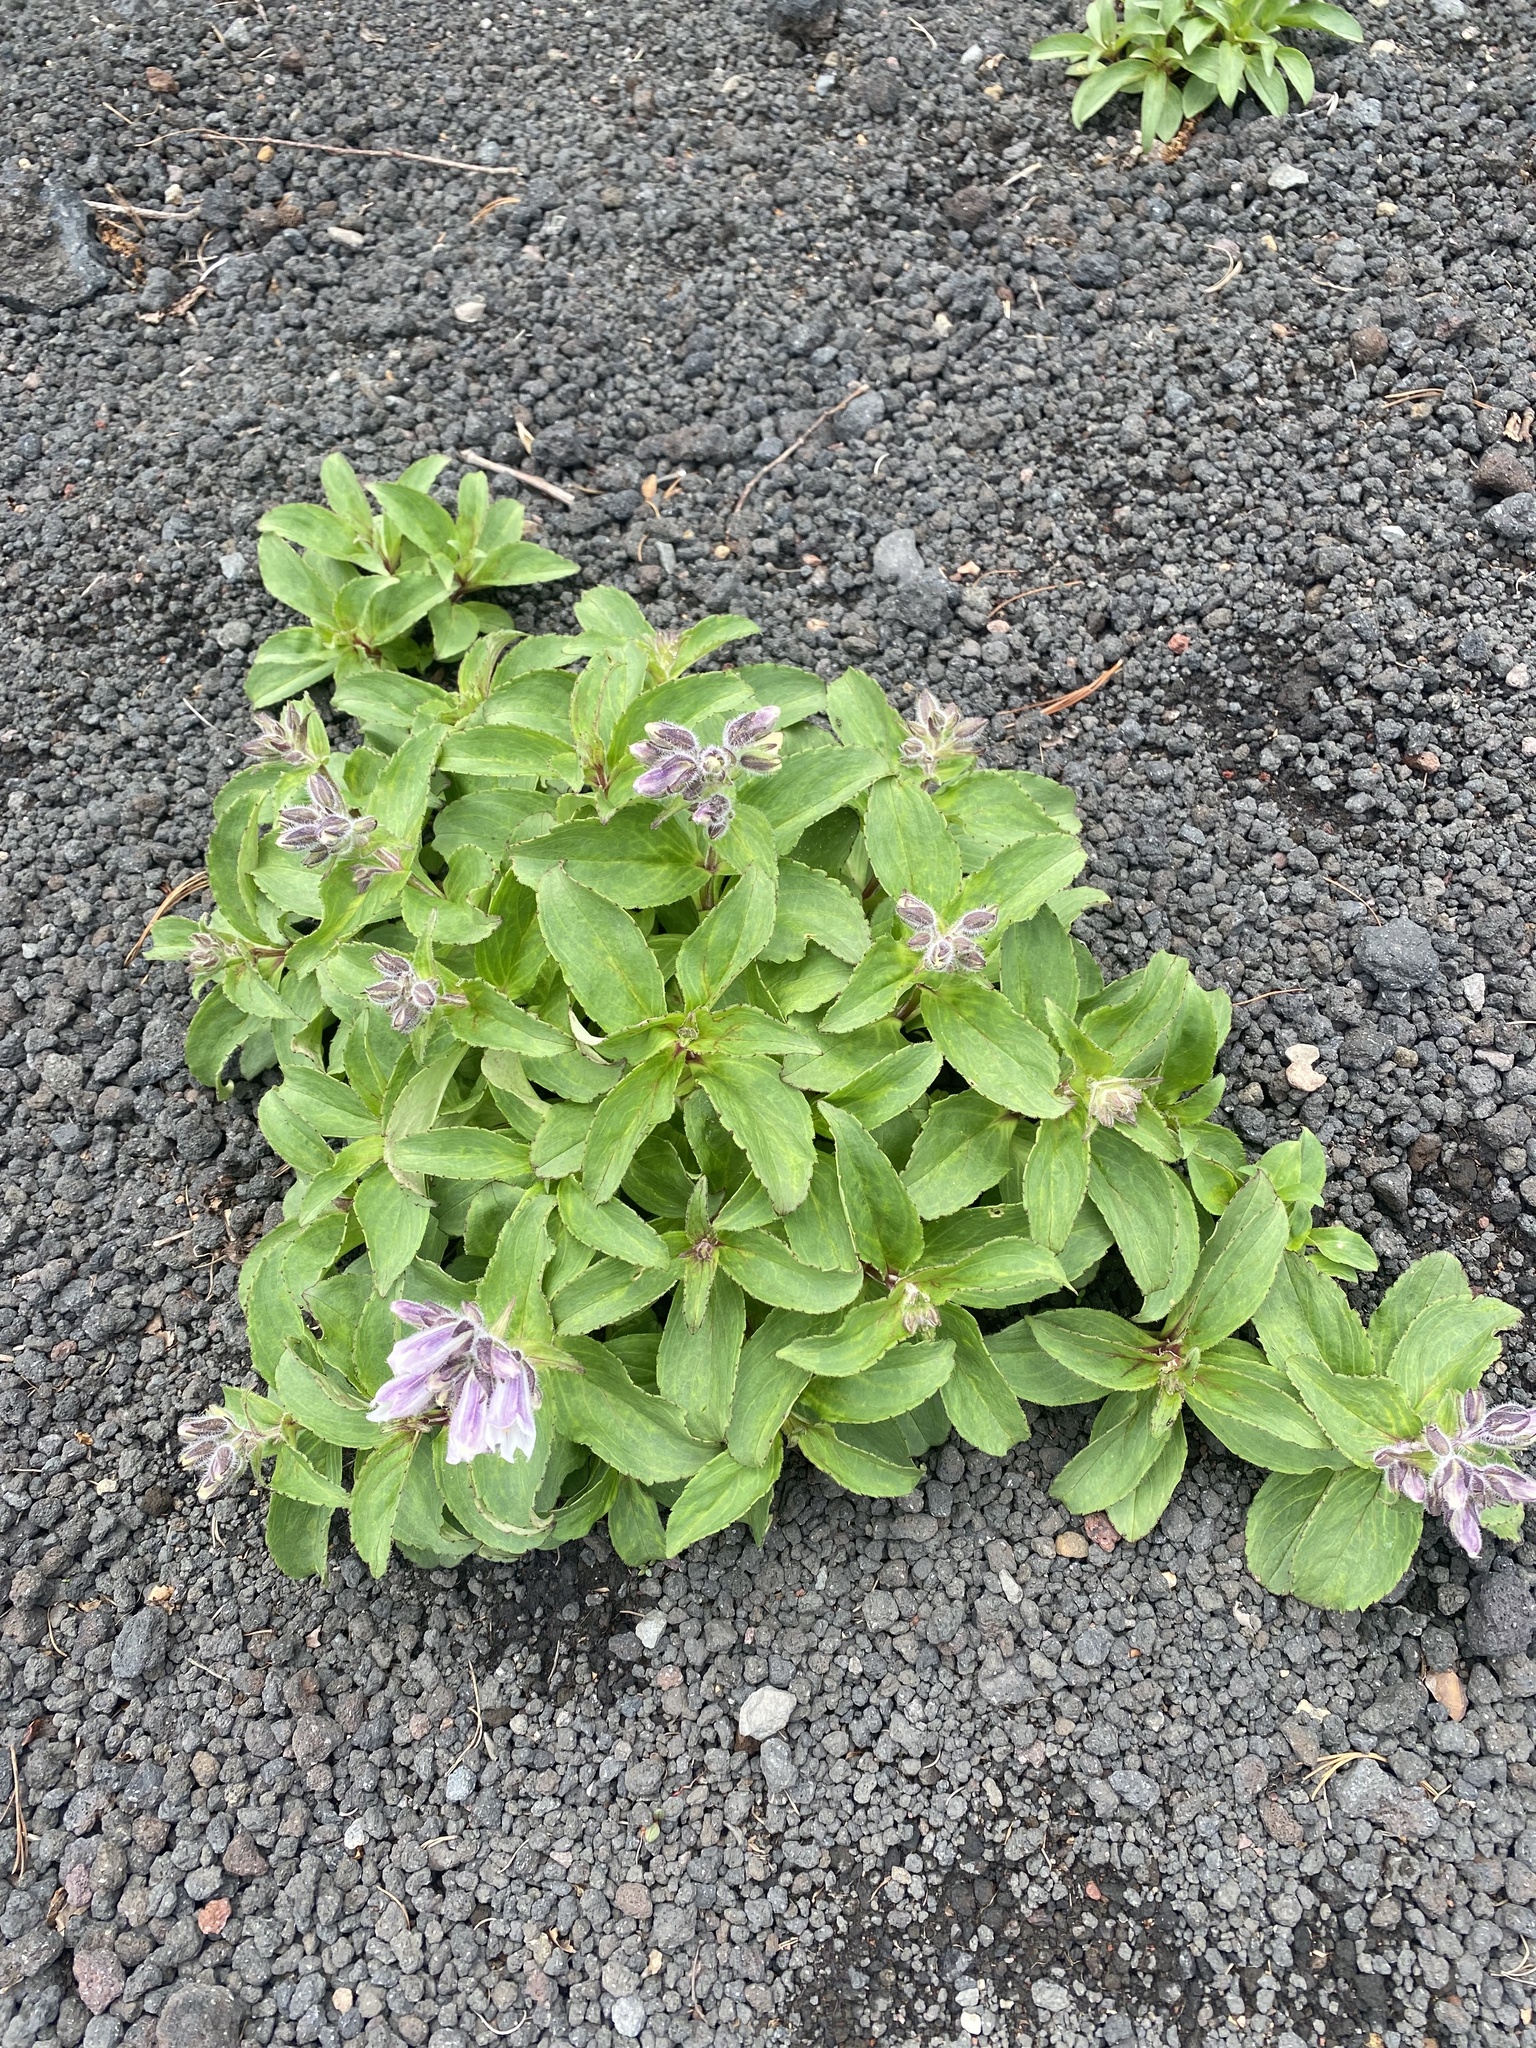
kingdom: Plantae
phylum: Tracheophyta
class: Magnoliopsida
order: Lamiales
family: Plantaginaceae
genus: Pennellianthus
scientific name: Pennellianthus frutescens
